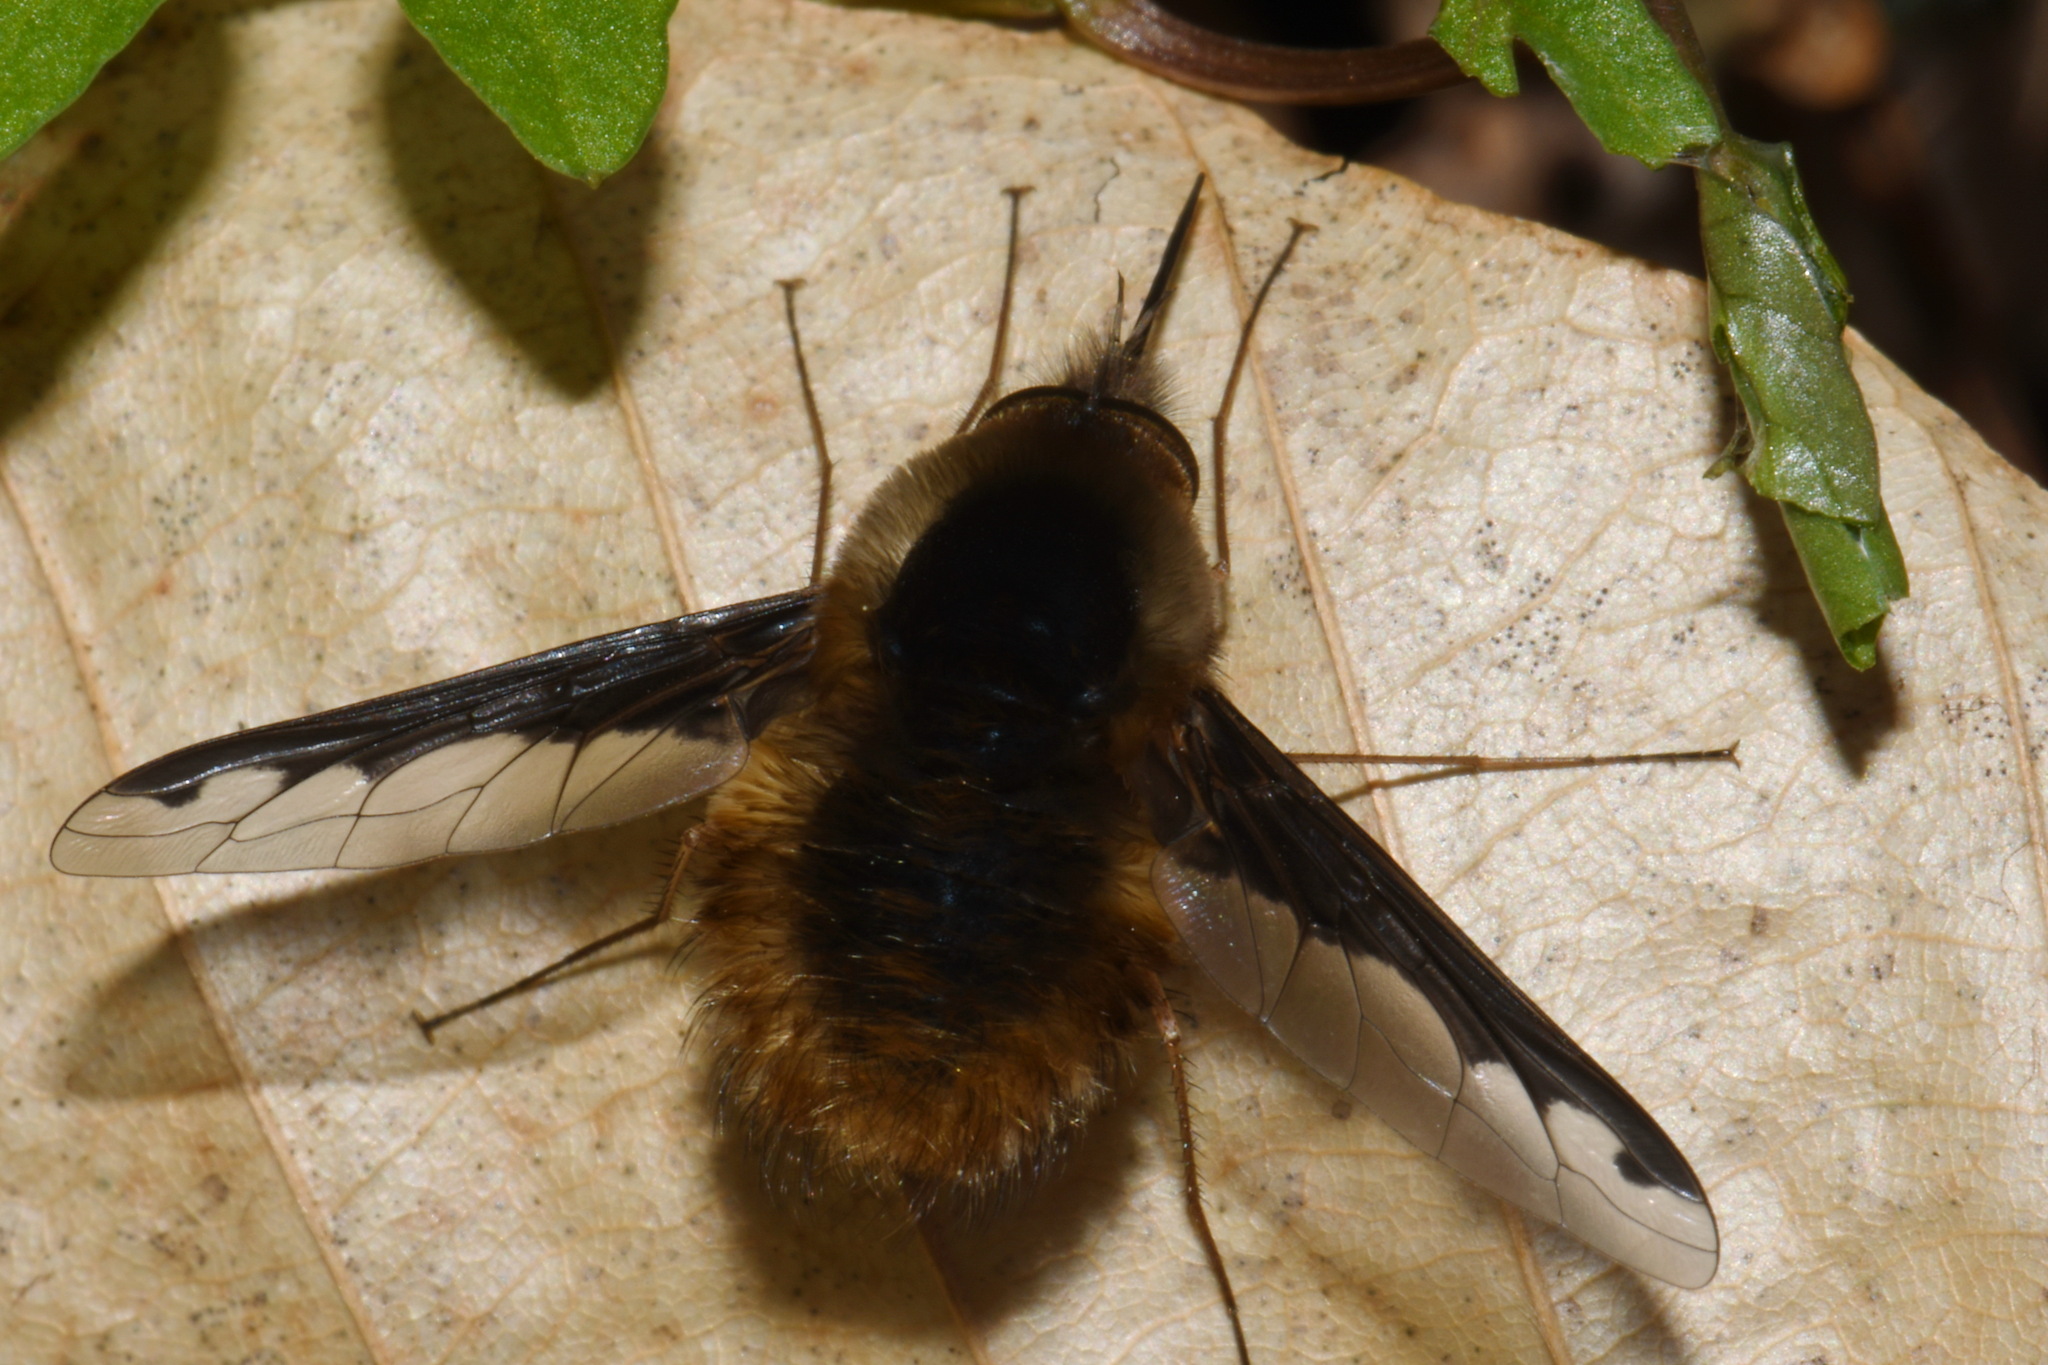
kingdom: Animalia
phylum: Arthropoda
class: Insecta
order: Diptera
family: Bombyliidae
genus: Bombylius
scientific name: Bombylius major
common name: Bee fly
